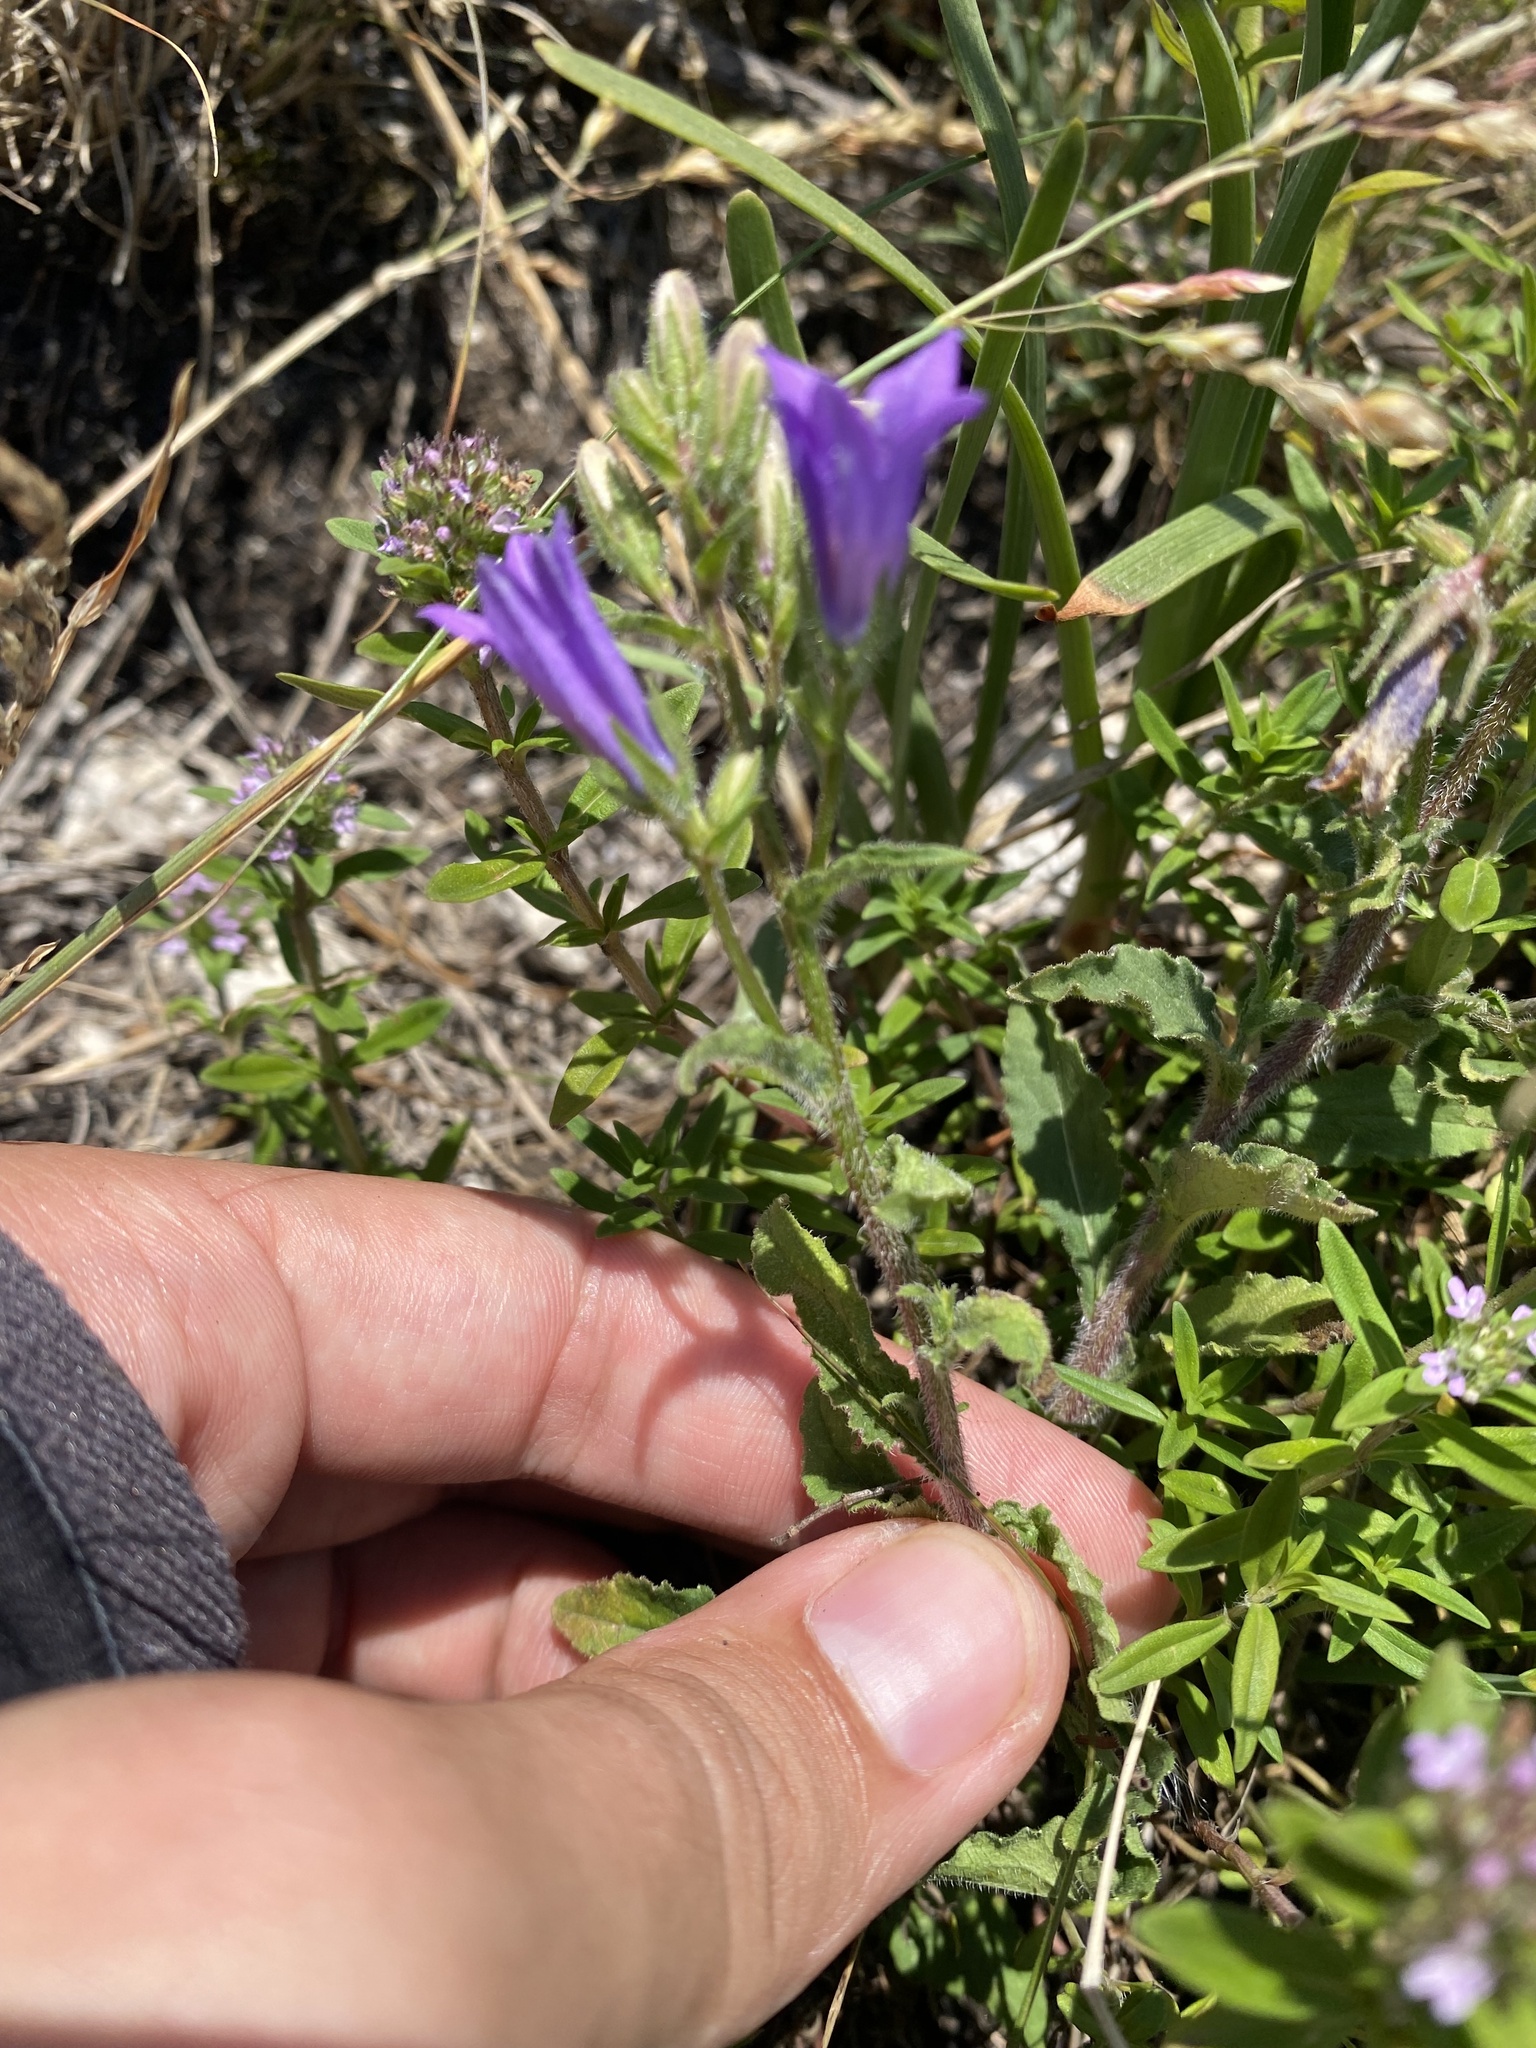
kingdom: Plantae
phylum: Tracheophyta
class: Magnoliopsida
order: Asterales
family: Campanulaceae
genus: Campanula
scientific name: Campanula sibirica
